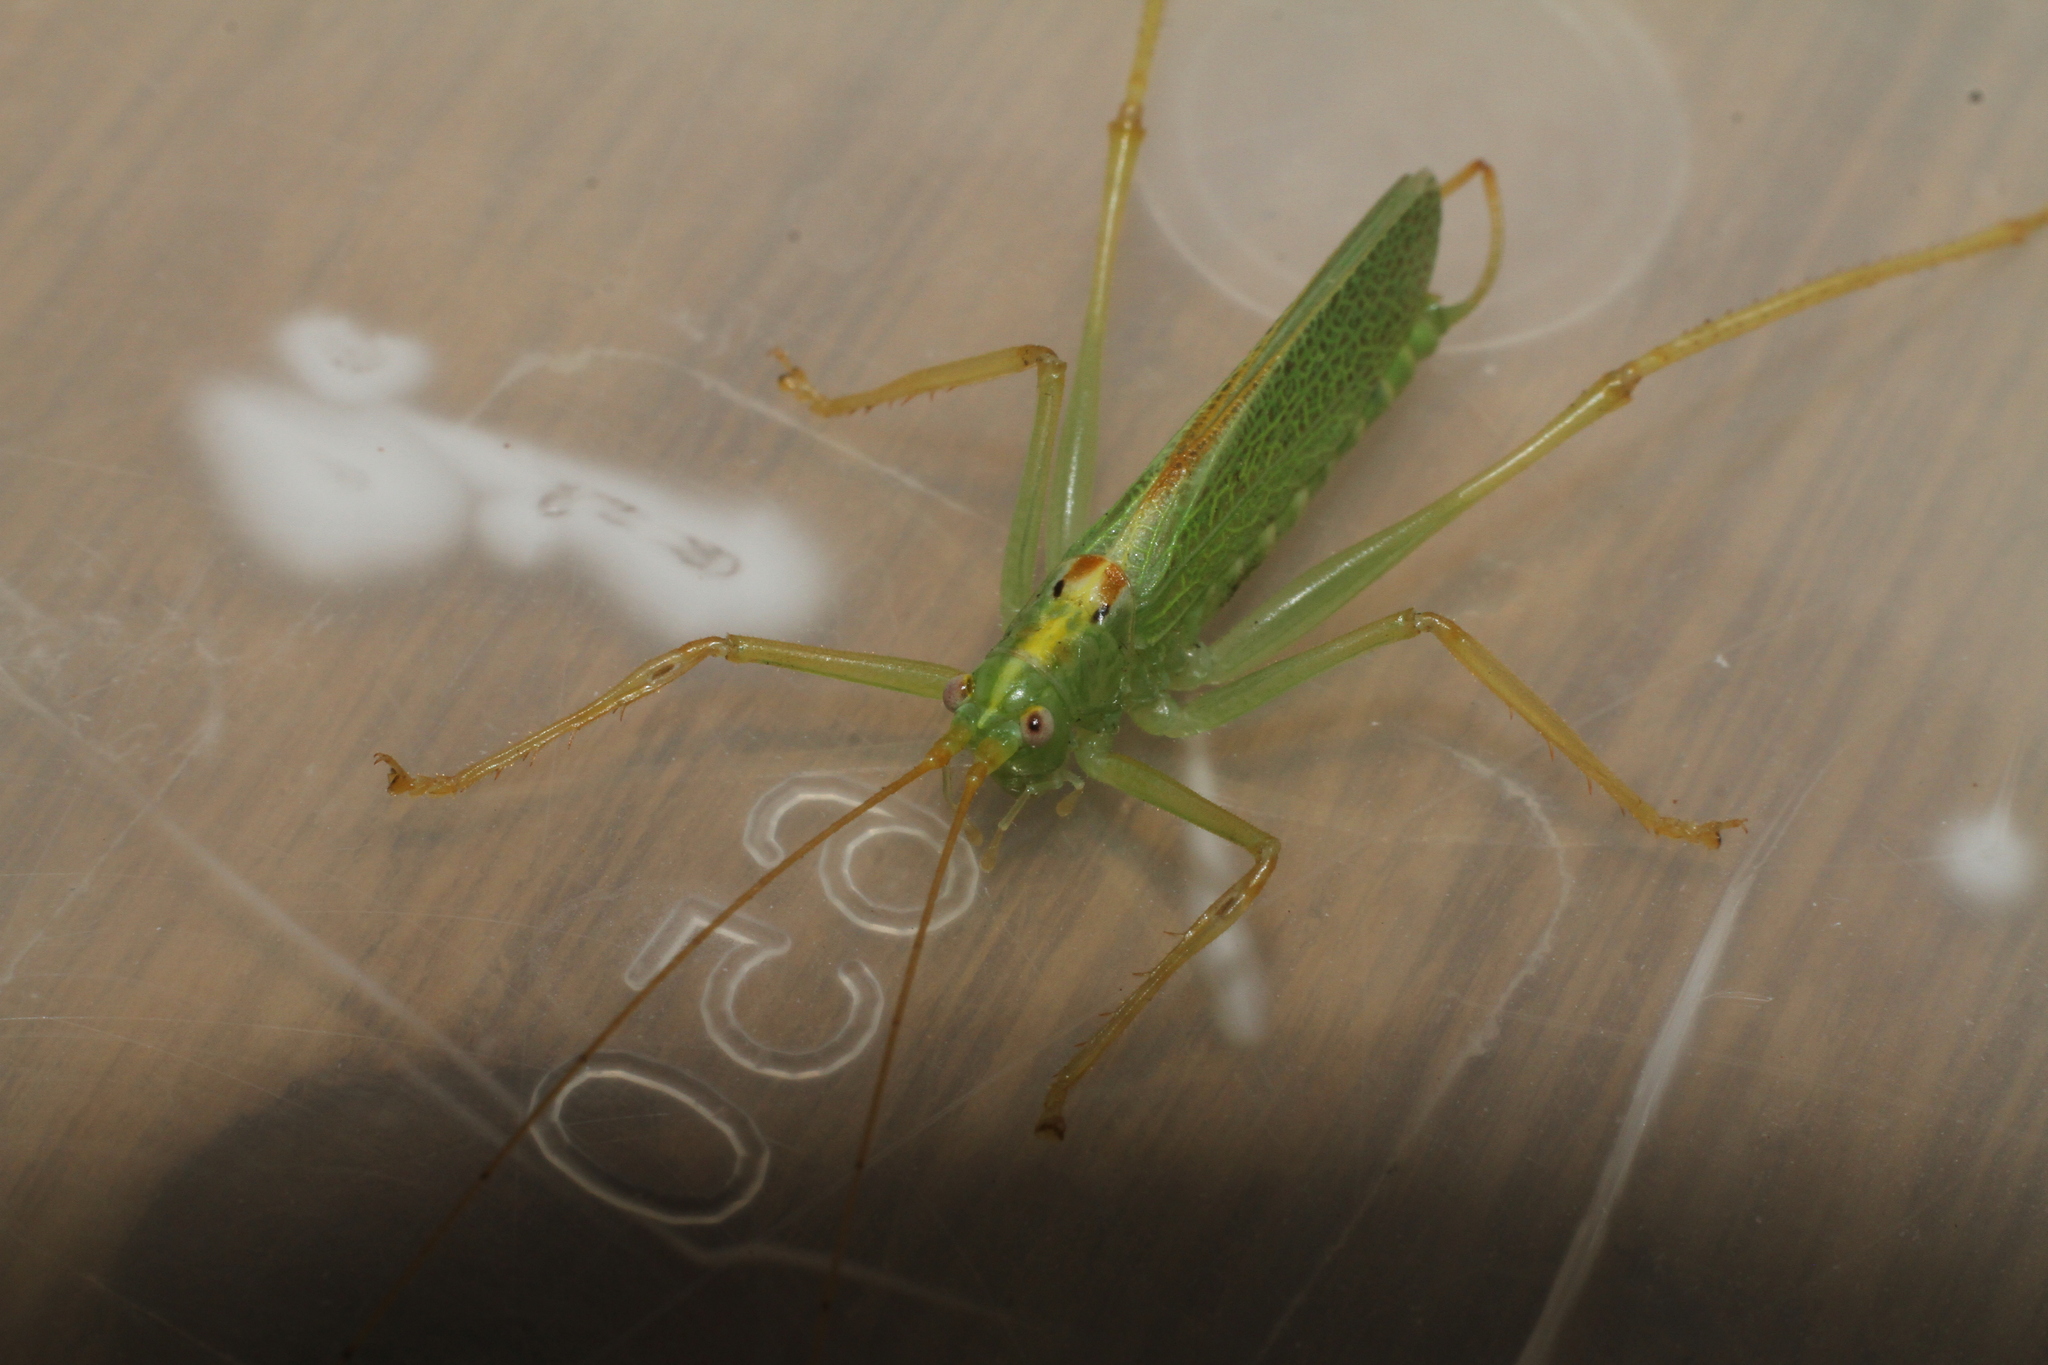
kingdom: Animalia
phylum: Arthropoda
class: Insecta
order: Orthoptera
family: Tettigoniidae
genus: Meconema
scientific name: Meconema thalassinum
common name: Oak bush-cricket
